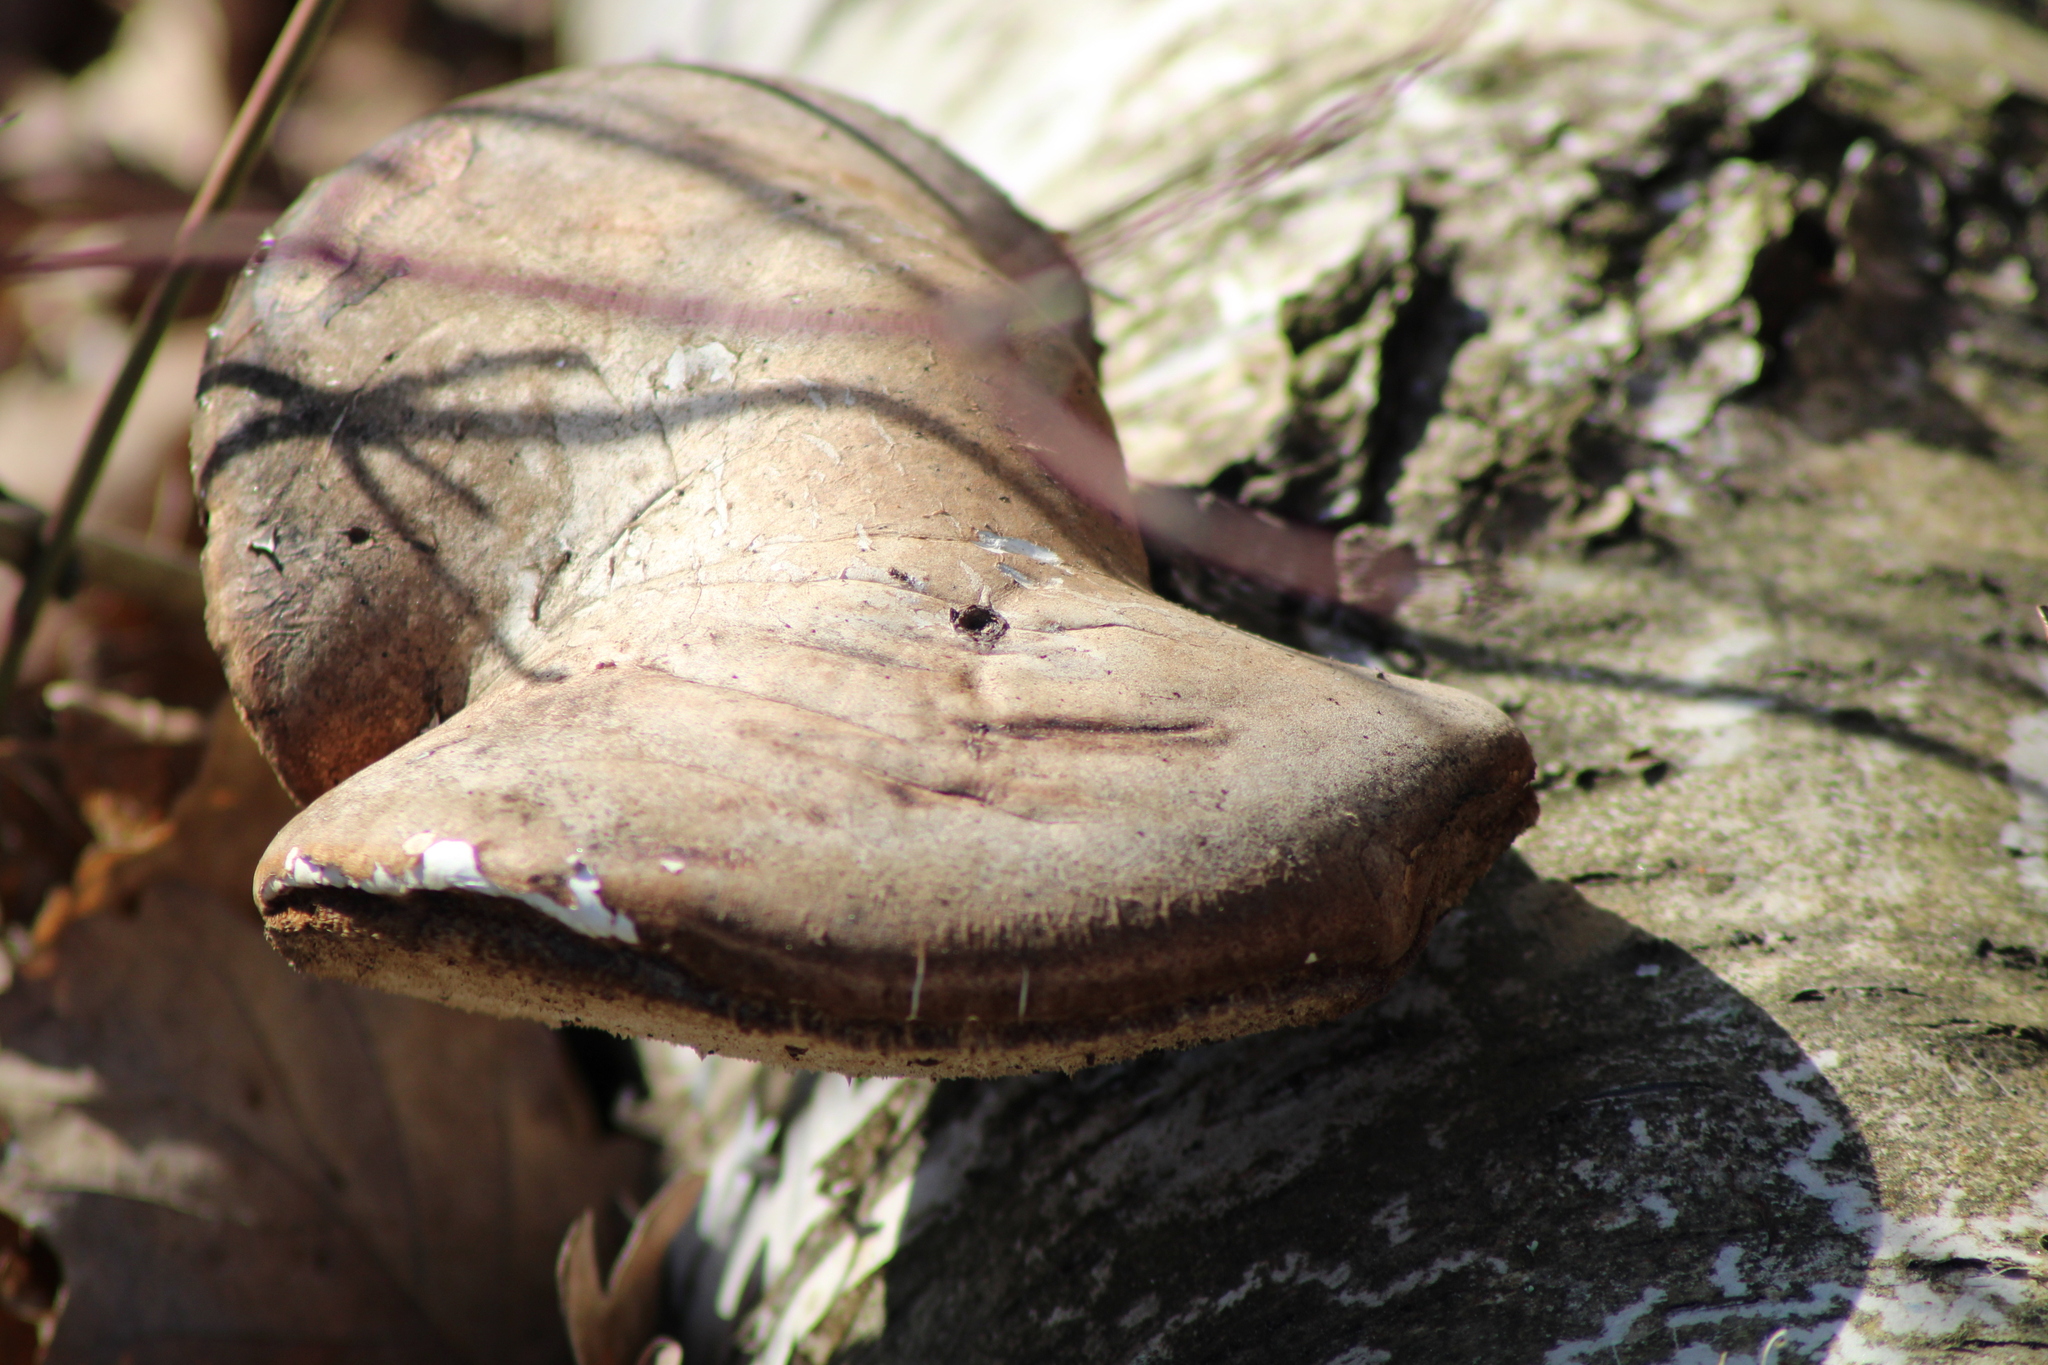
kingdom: Fungi
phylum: Basidiomycota
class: Agaricomycetes
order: Polyporales
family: Fomitopsidaceae
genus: Fomitopsis
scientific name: Fomitopsis betulina
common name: Birch polypore
